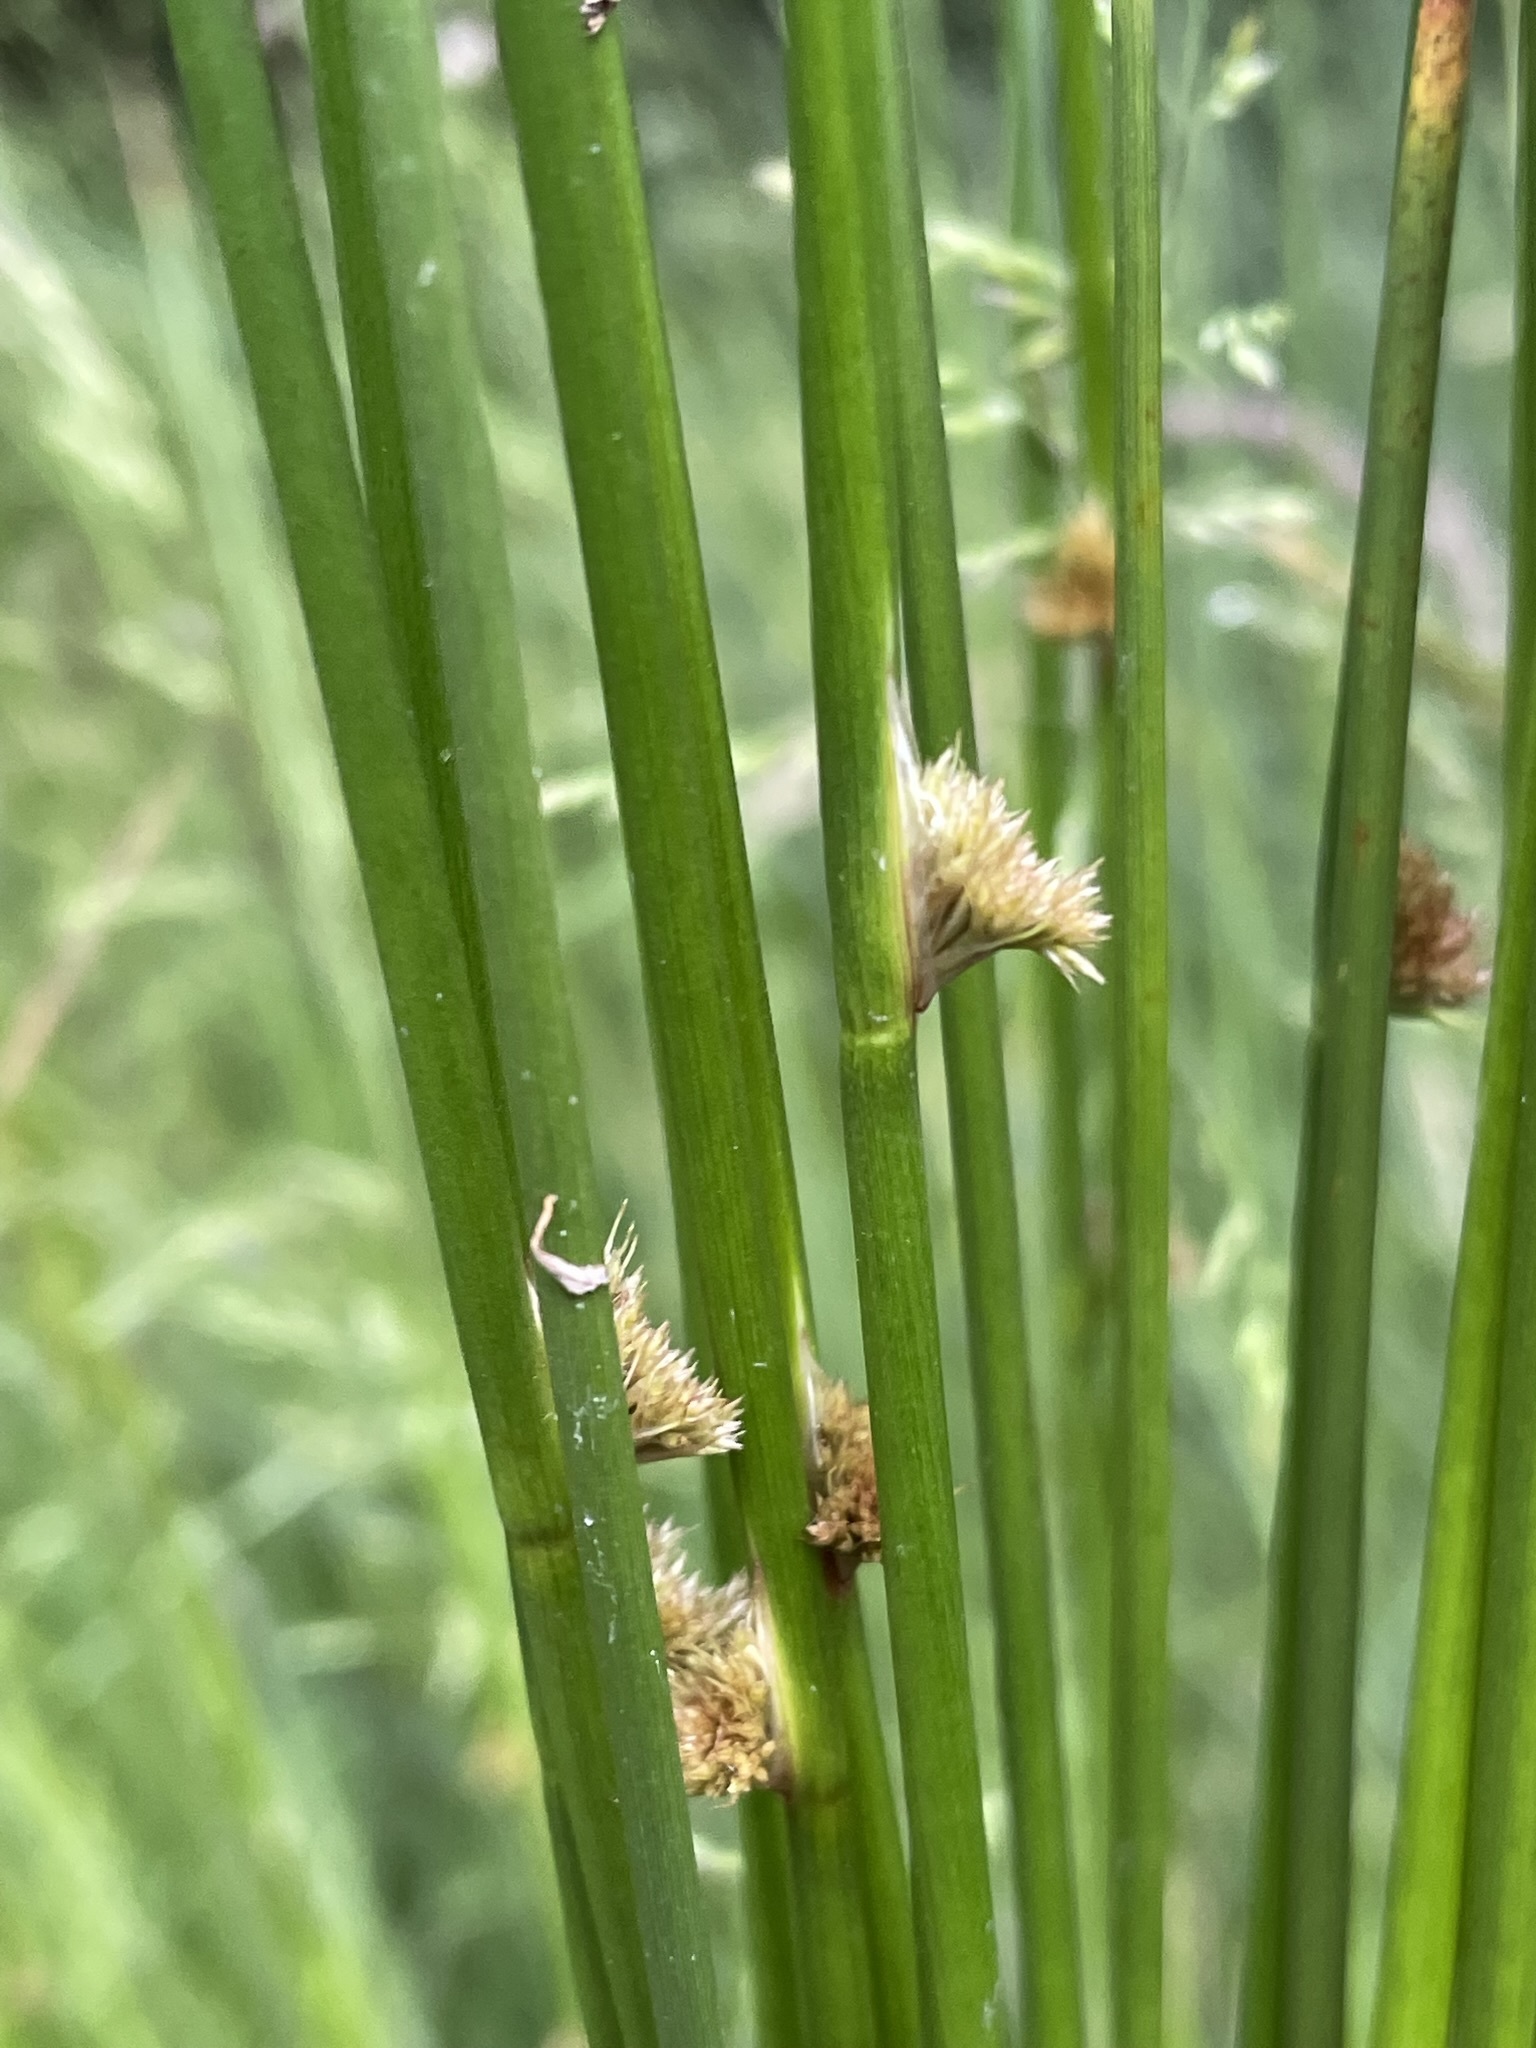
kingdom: Plantae
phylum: Tracheophyta
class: Liliopsida
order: Poales
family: Juncaceae
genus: Juncus
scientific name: Juncus effusus
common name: Soft rush
